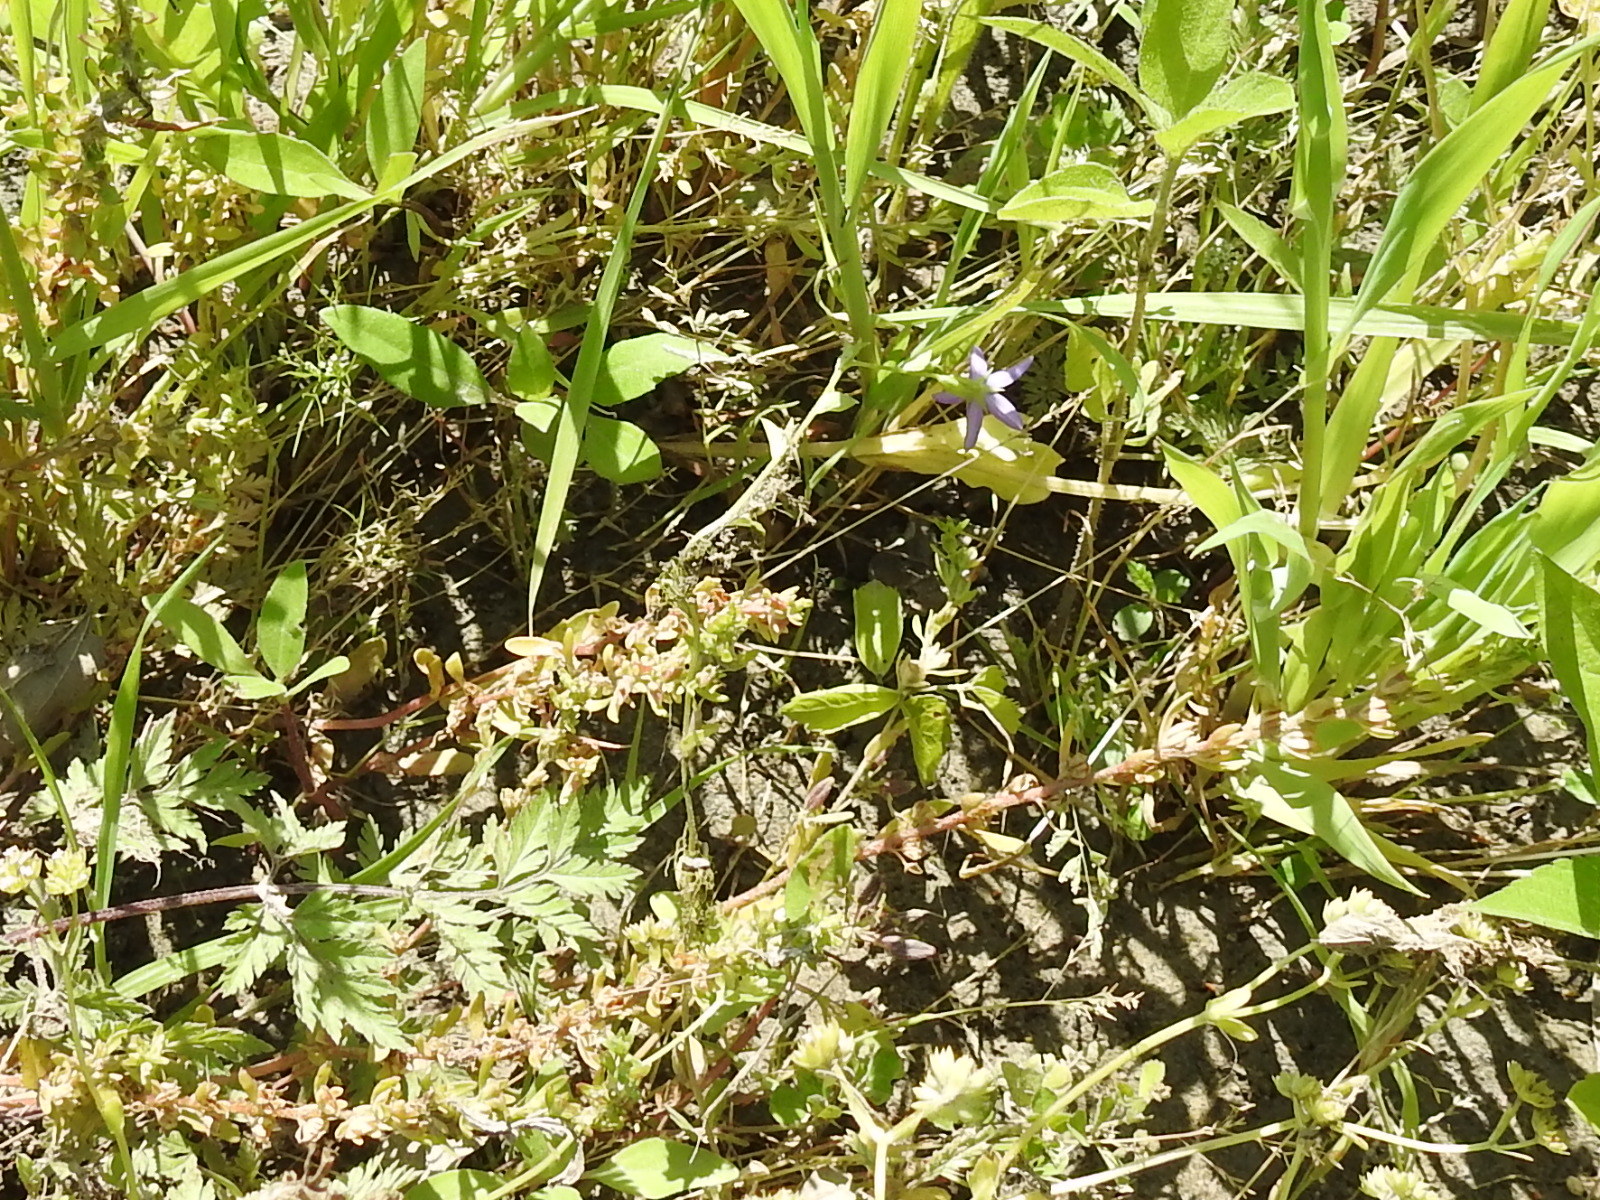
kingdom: Plantae
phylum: Tracheophyta
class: Magnoliopsida
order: Asterales
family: Campanulaceae
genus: Triodanis
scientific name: Triodanis perfoliata
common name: Clasping venus' looking-glass
